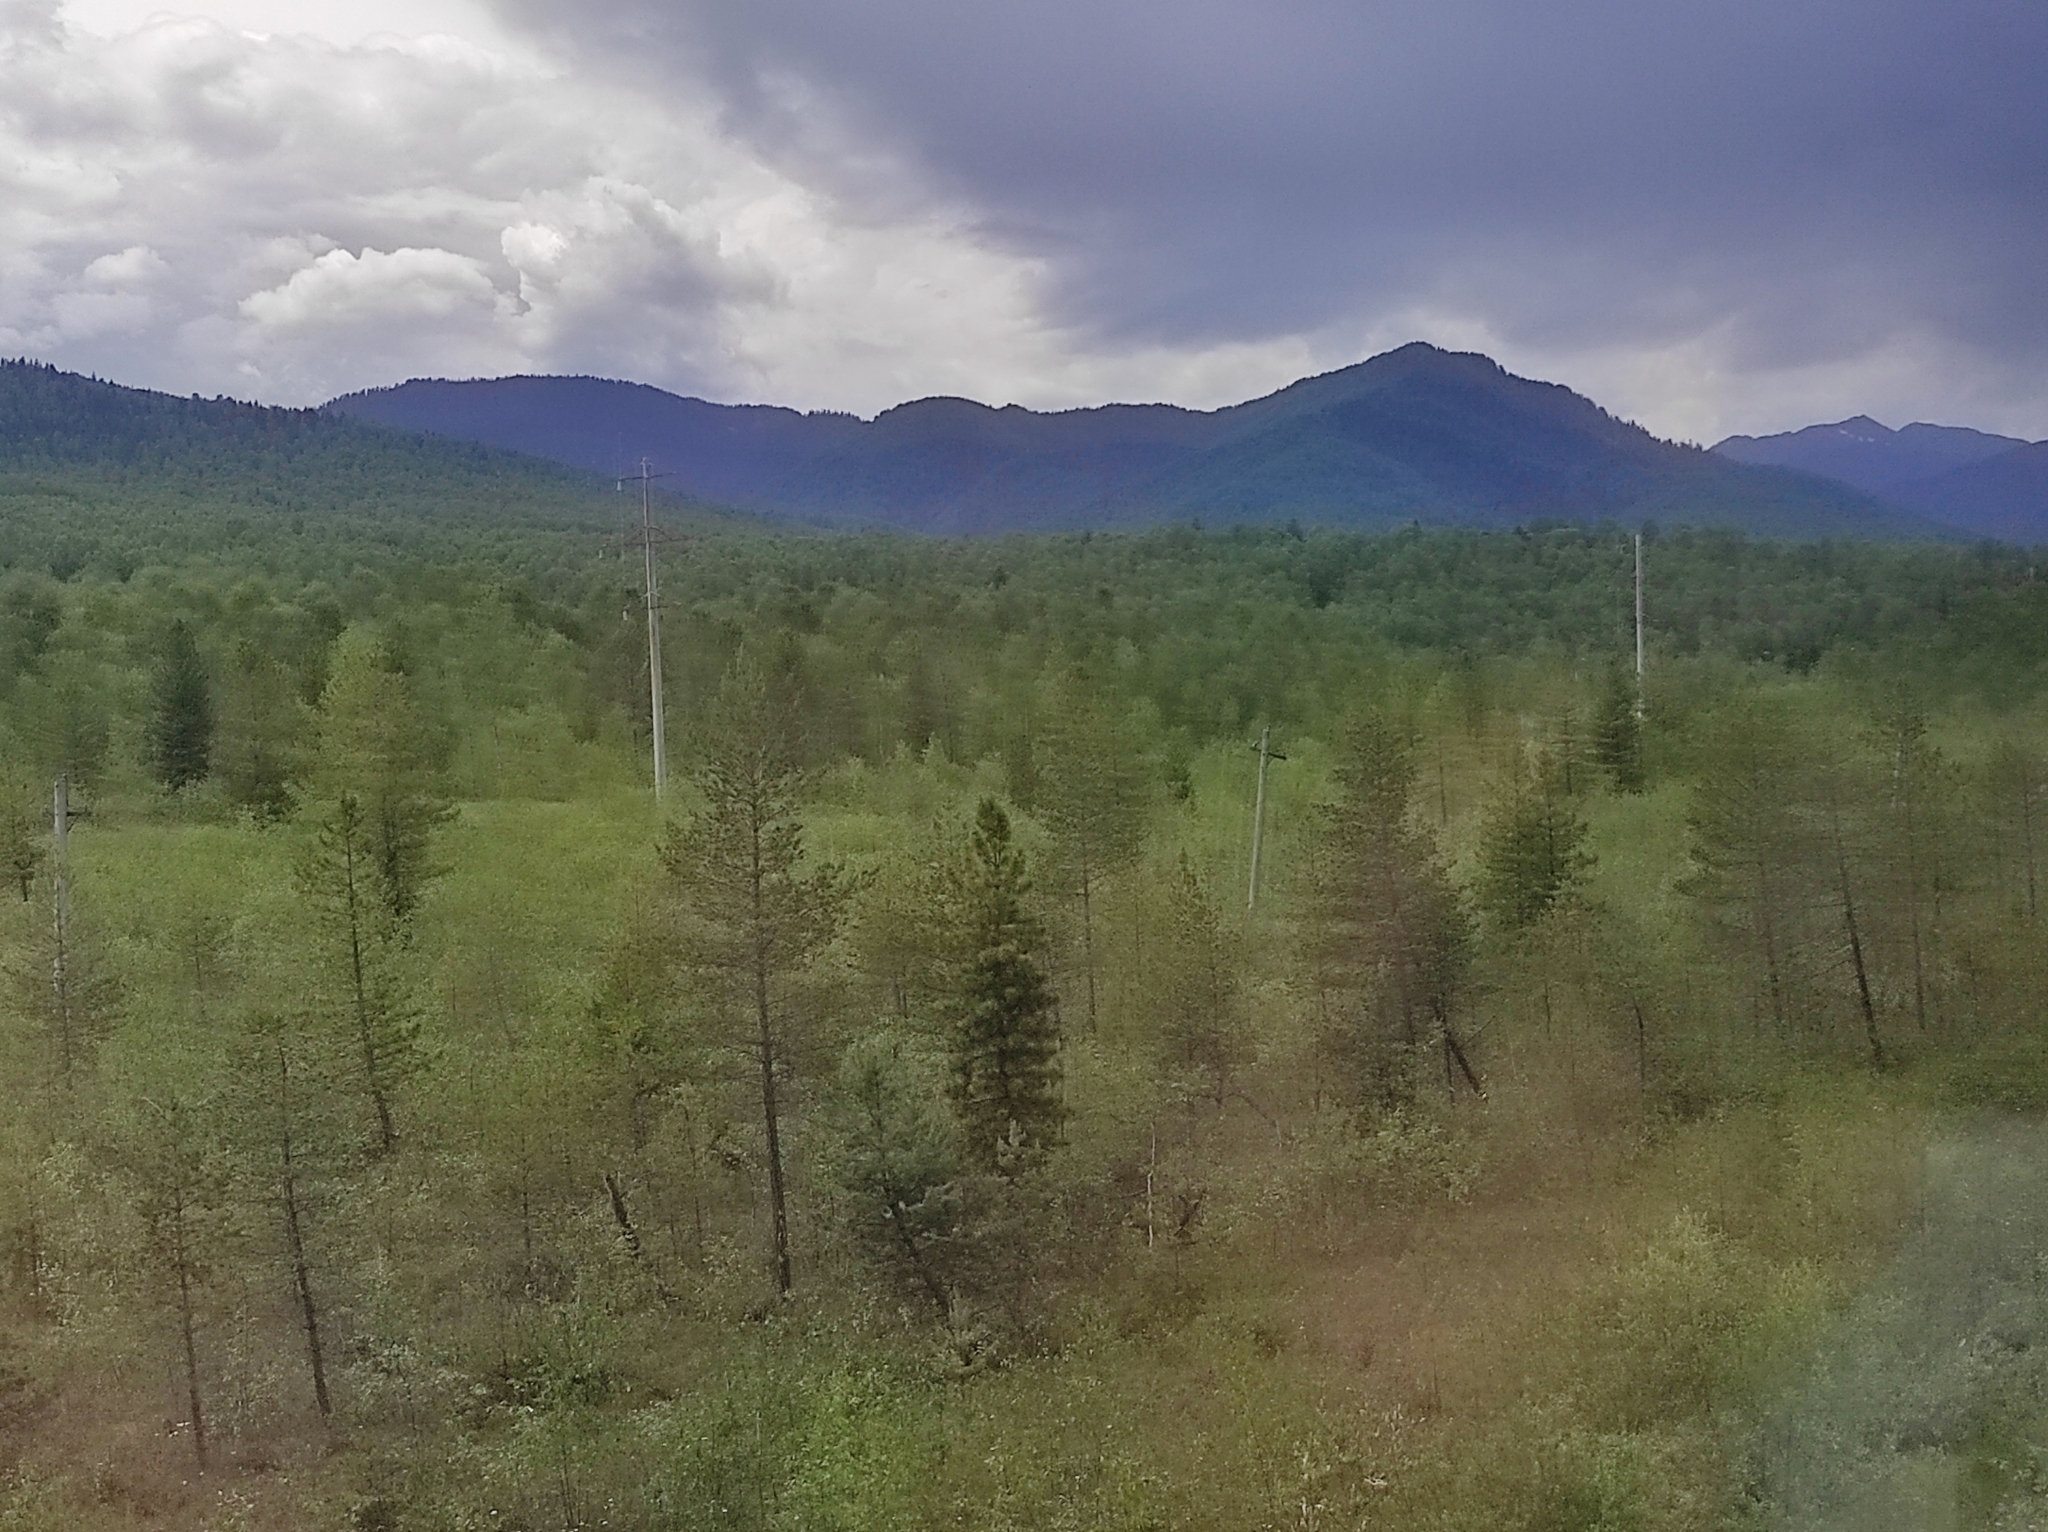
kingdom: Plantae
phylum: Tracheophyta
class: Pinopsida
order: Pinales
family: Pinaceae
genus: Pinus
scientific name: Pinus sibirica
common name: Siberian pine
